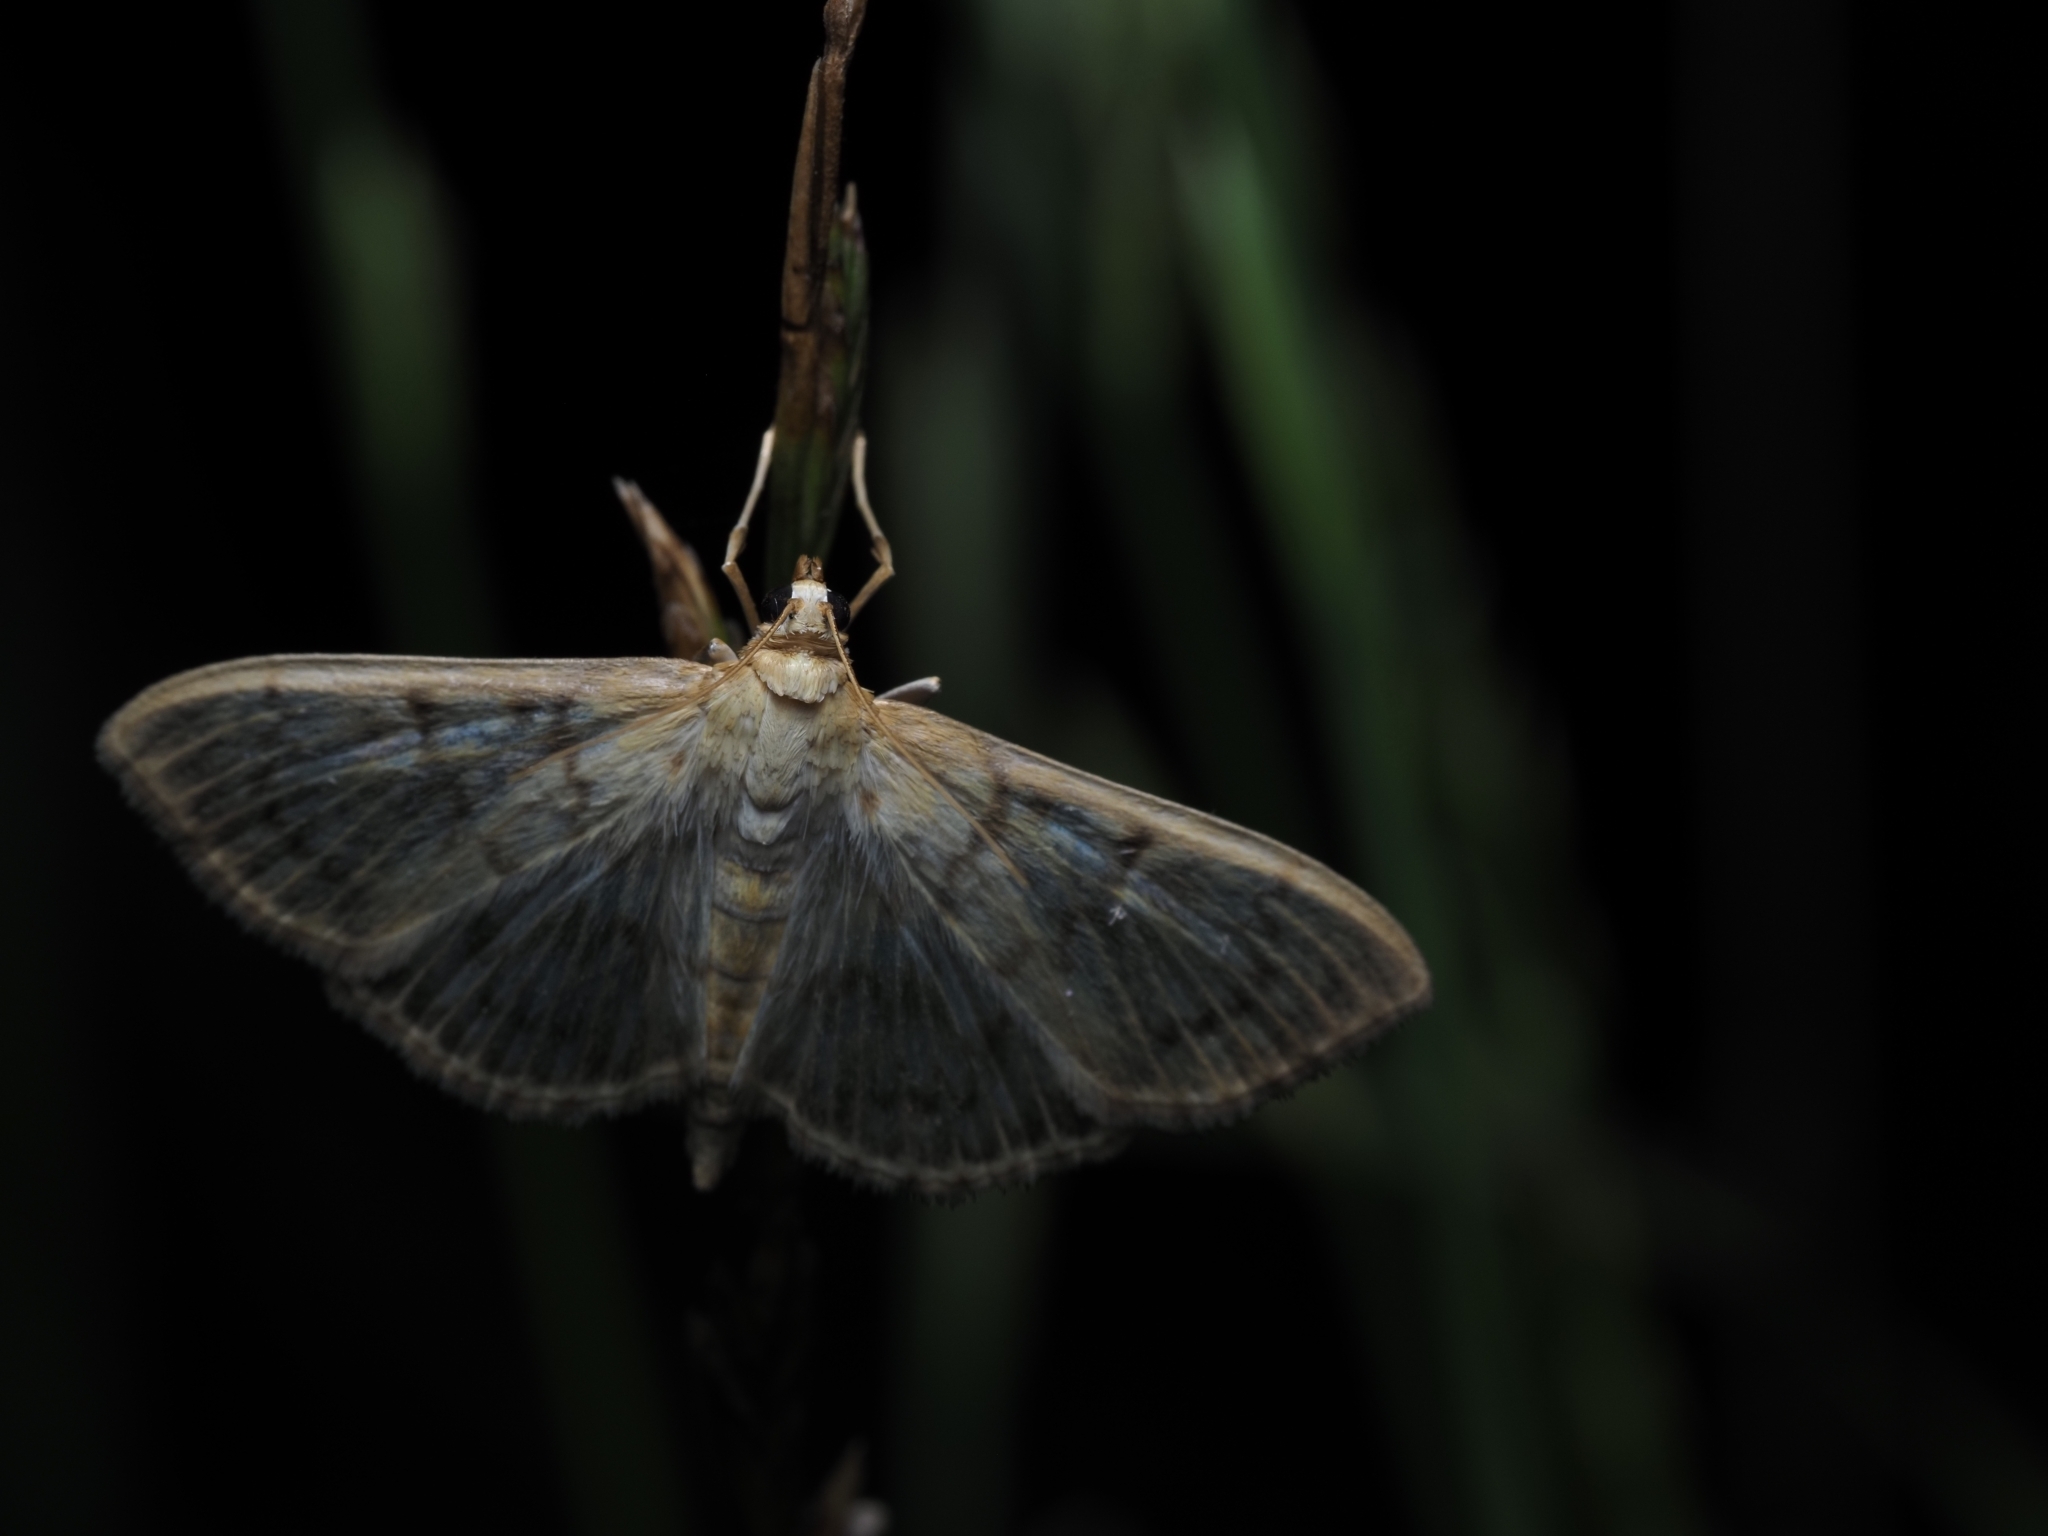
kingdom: Animalia
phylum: Arthropoda
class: Insecta
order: Lepidoptera
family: Crambidae
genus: Patania
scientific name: Patania ruralis
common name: Mother of pearl
